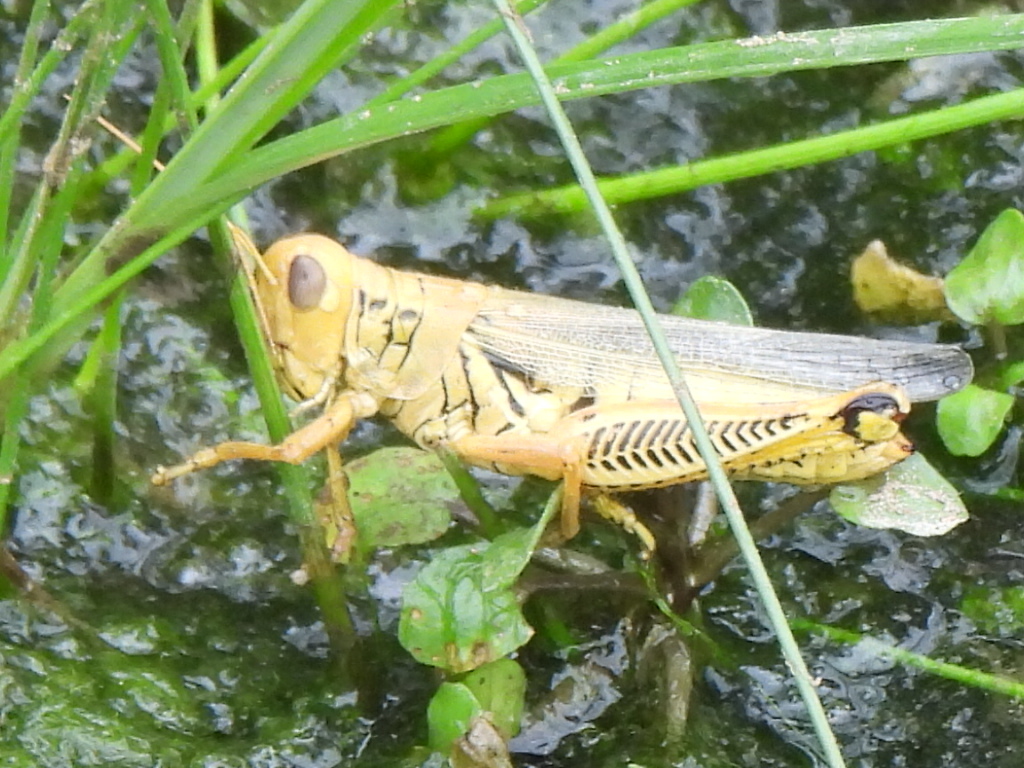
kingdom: Animalia
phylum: Arthropoda
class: Insecta
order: Orthoptera
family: Acrididae
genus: Melanoplus
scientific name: Melanoplus differentialis
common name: Differential grasshopper
